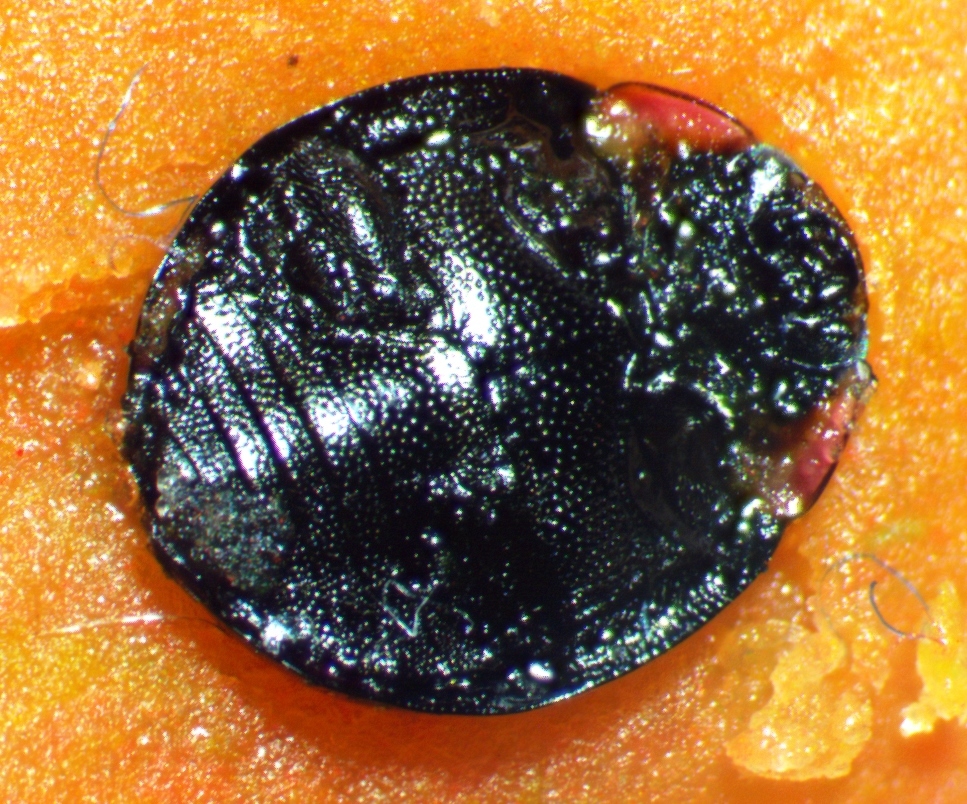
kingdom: Animalia
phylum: Arthropoda
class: Insecta
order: Coleoptera
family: Coccinellidae
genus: Hyperaspis
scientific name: Hyperaspis bigeminata
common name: Bigeminate sigil lady beetle
